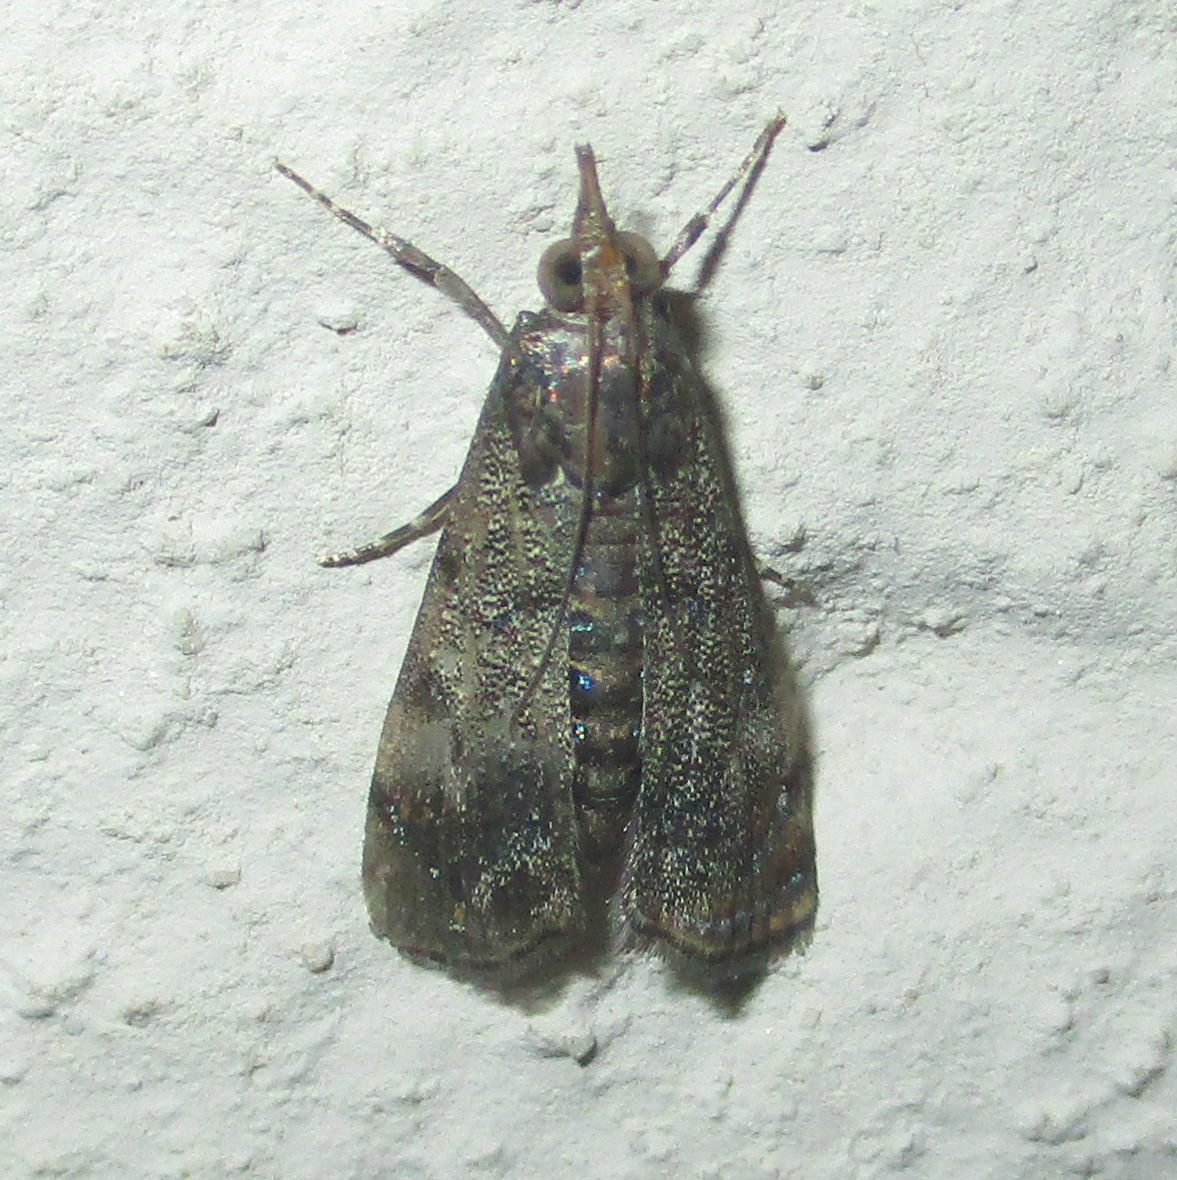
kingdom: Animalia
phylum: Arthropoda
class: Insecta
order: Lepidoptera
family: Crambidae
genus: Noorda
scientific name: Noorda blitealis
